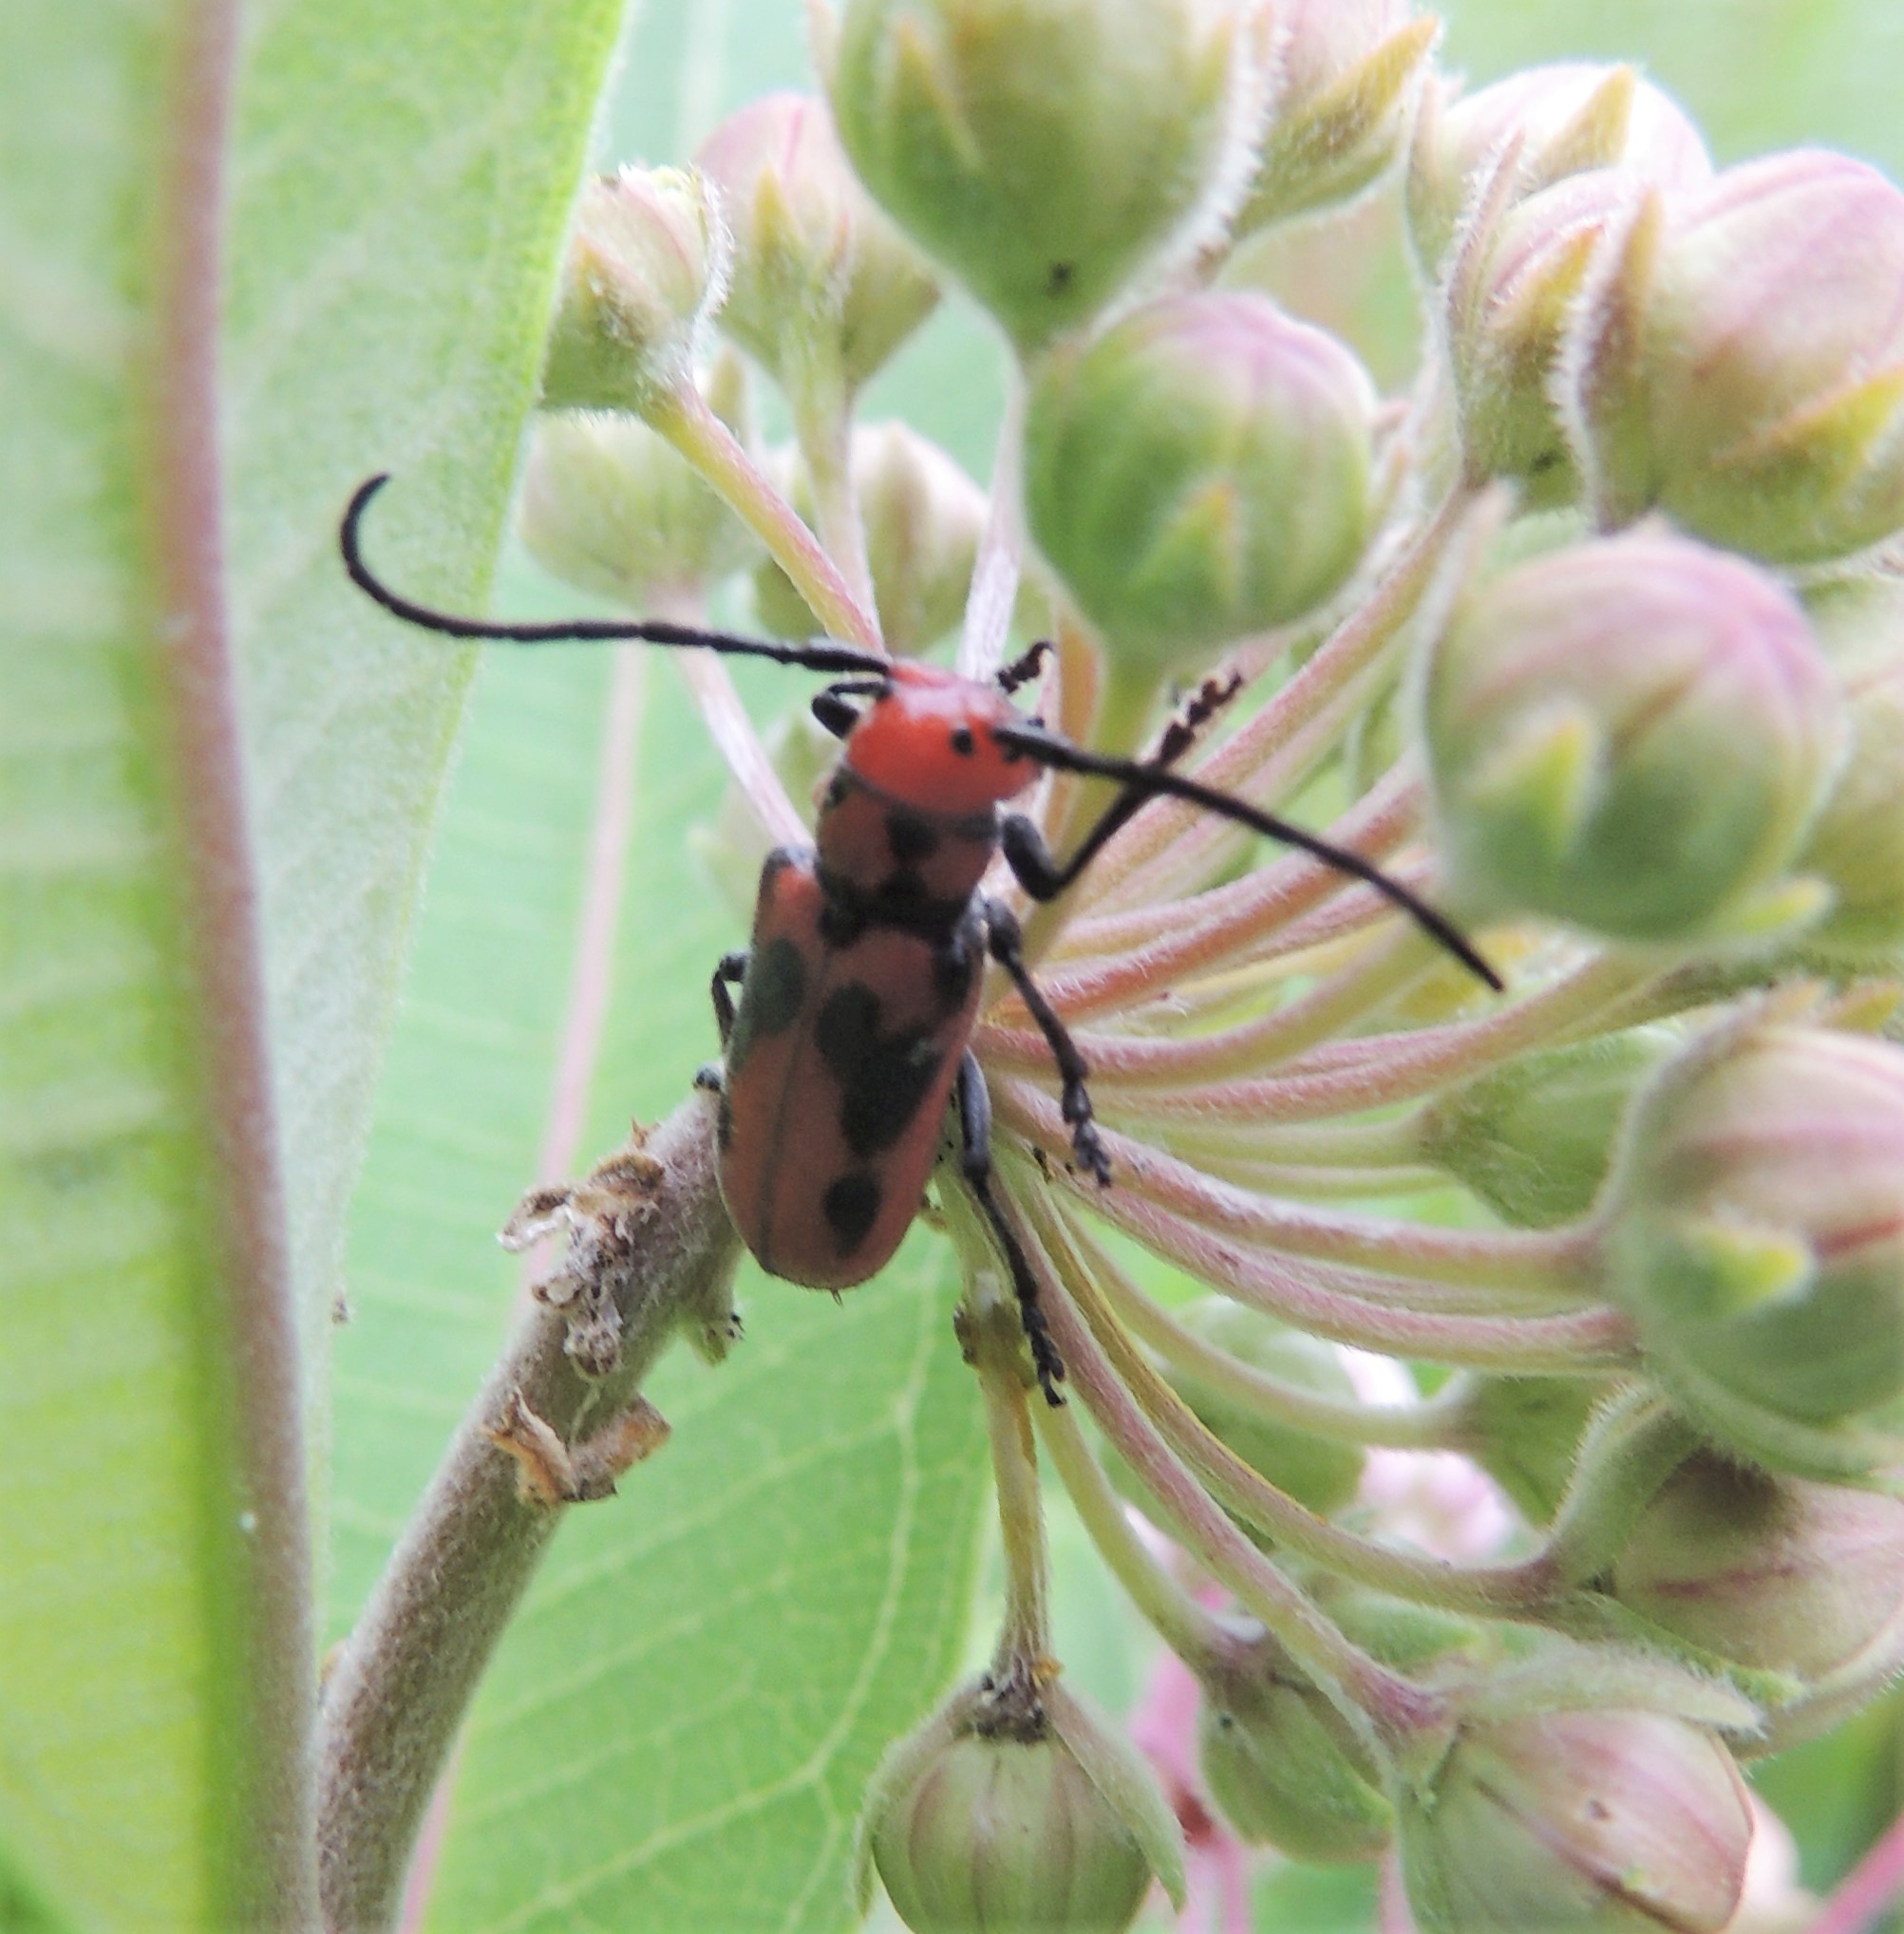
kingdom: Animalia
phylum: Arthropoda
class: Insecta
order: Coleoptera
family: Cerambycidae
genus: Tetraopes
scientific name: Tetraopes tetrophthalmus
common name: Red milkweed beetle
